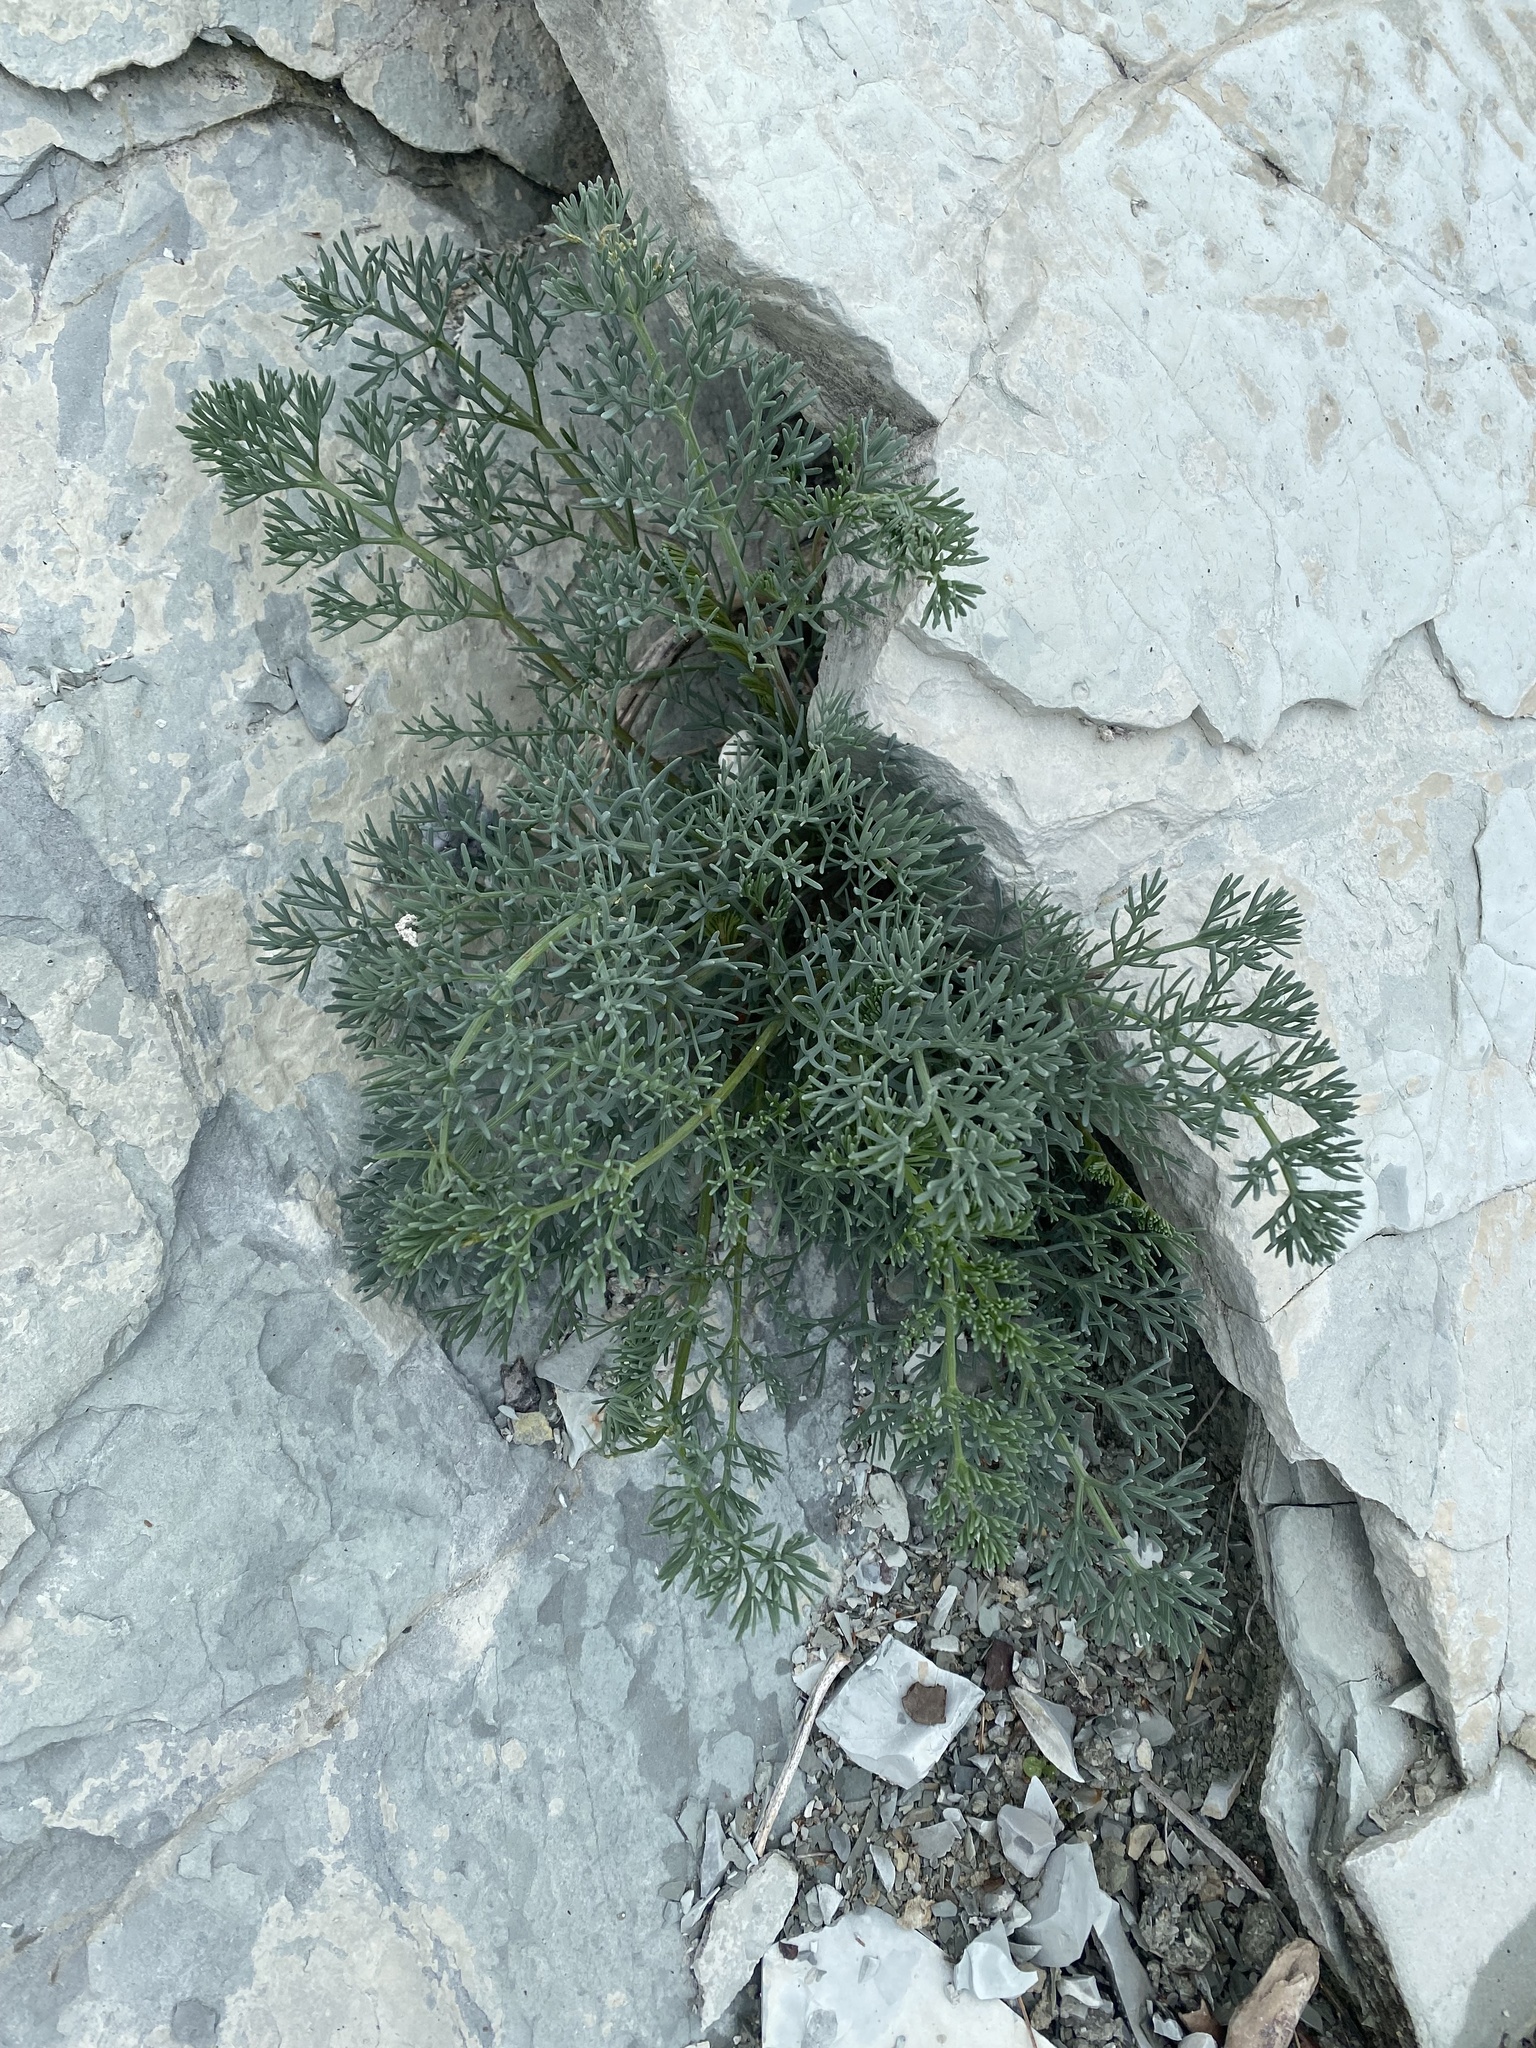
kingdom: Plantae
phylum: Tracheophyta
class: Magnoliopsida
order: Apiales
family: Apiaceae
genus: Seseli
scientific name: Seseli ponticum
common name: Pontic seseli
